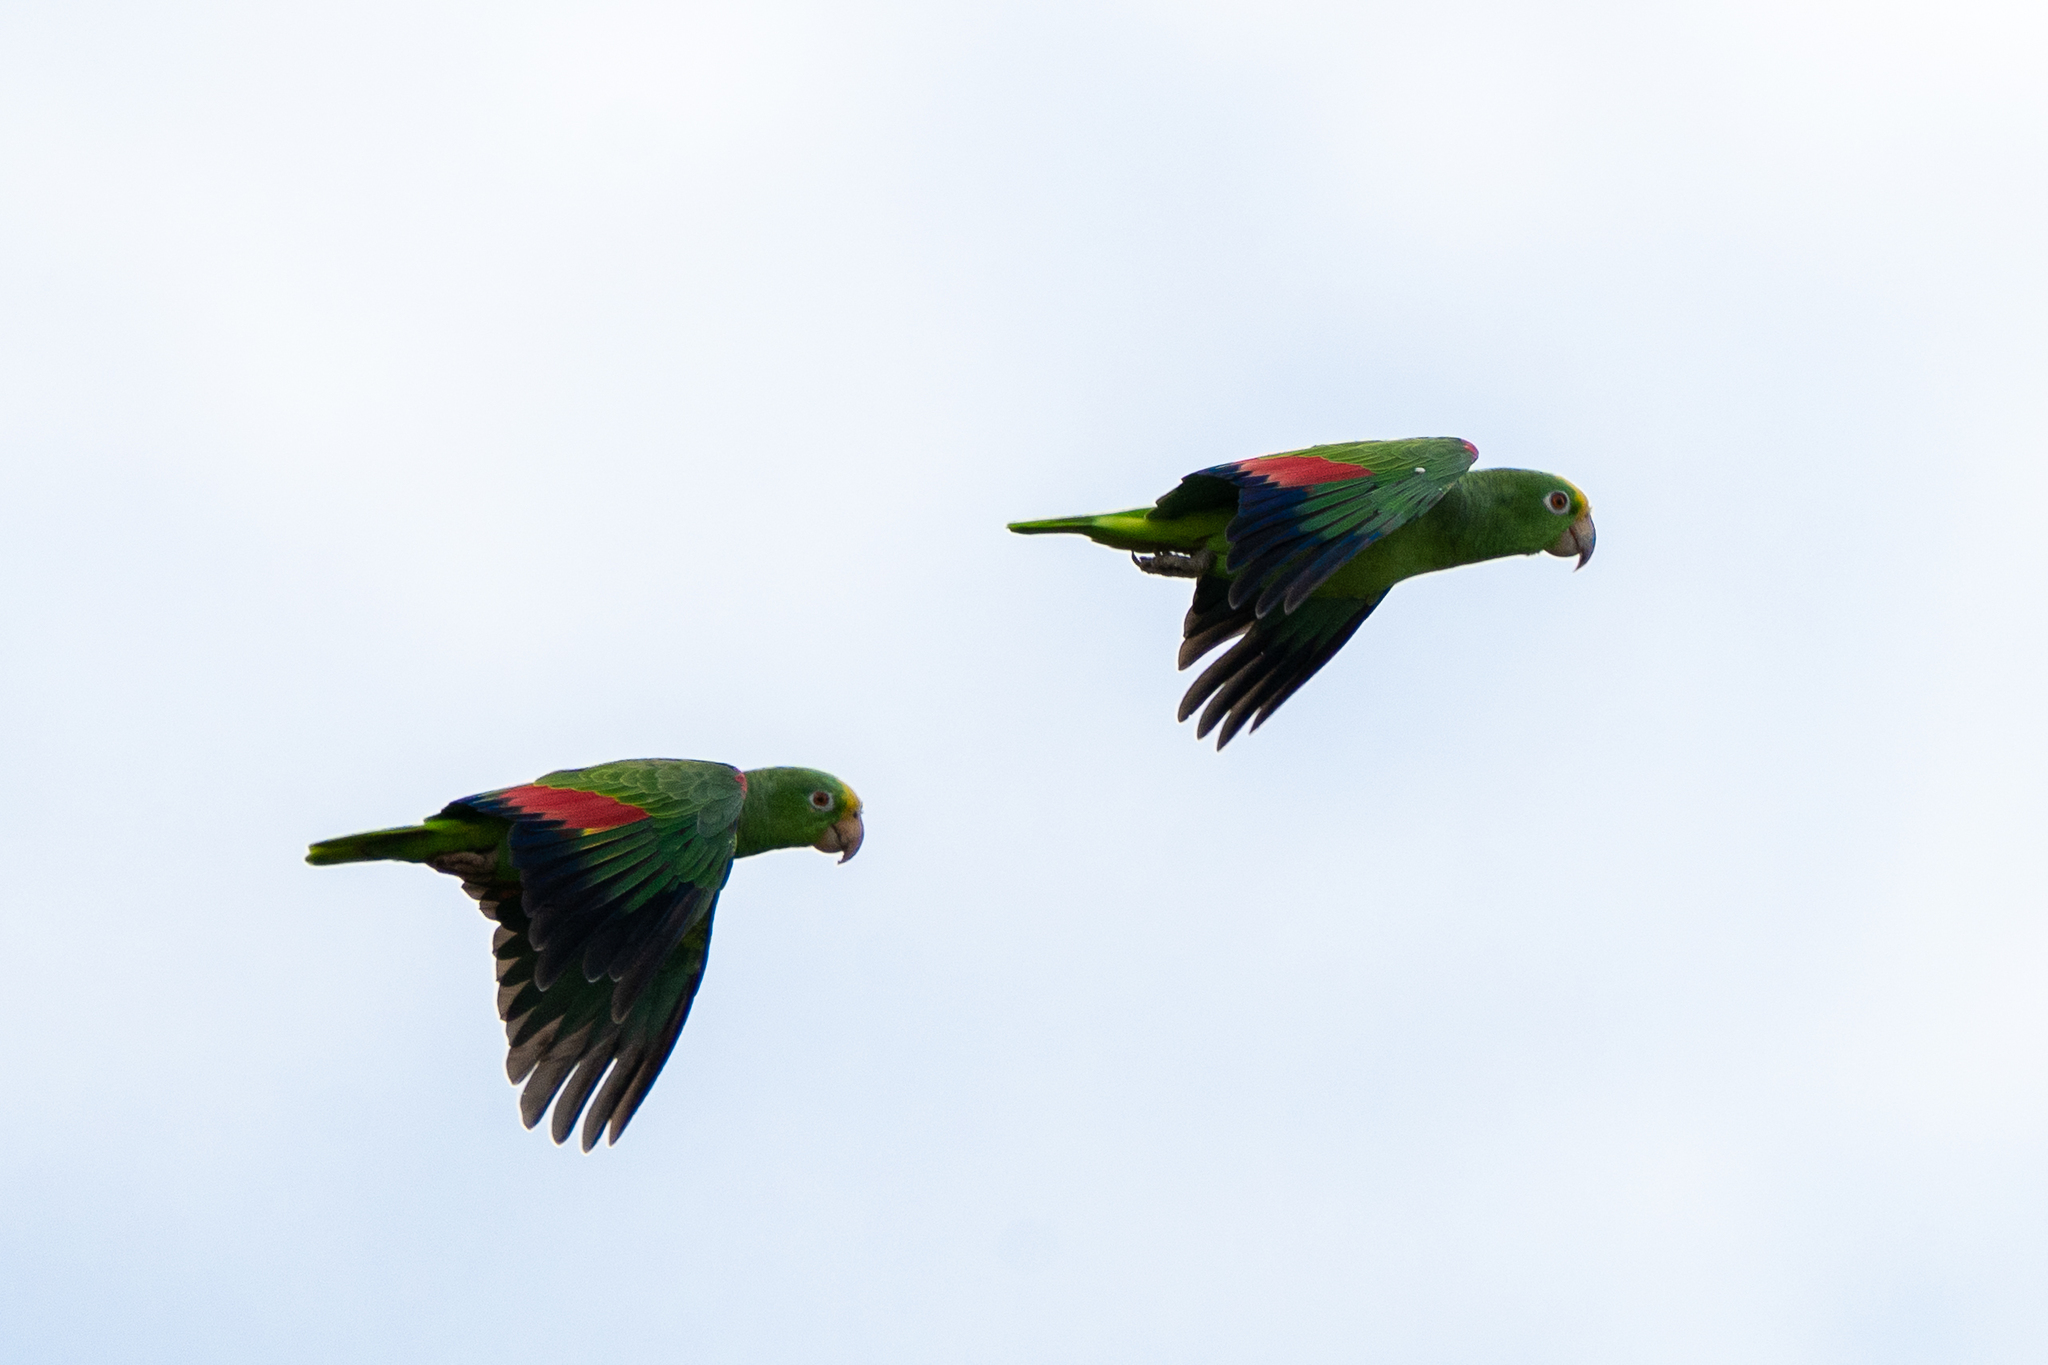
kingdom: Animalia
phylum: Chordata
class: Aves
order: Psittaciformes
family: Psittacidae
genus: Amazona
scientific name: Amazona ochrocephala
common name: Yellow-crowned amazon
